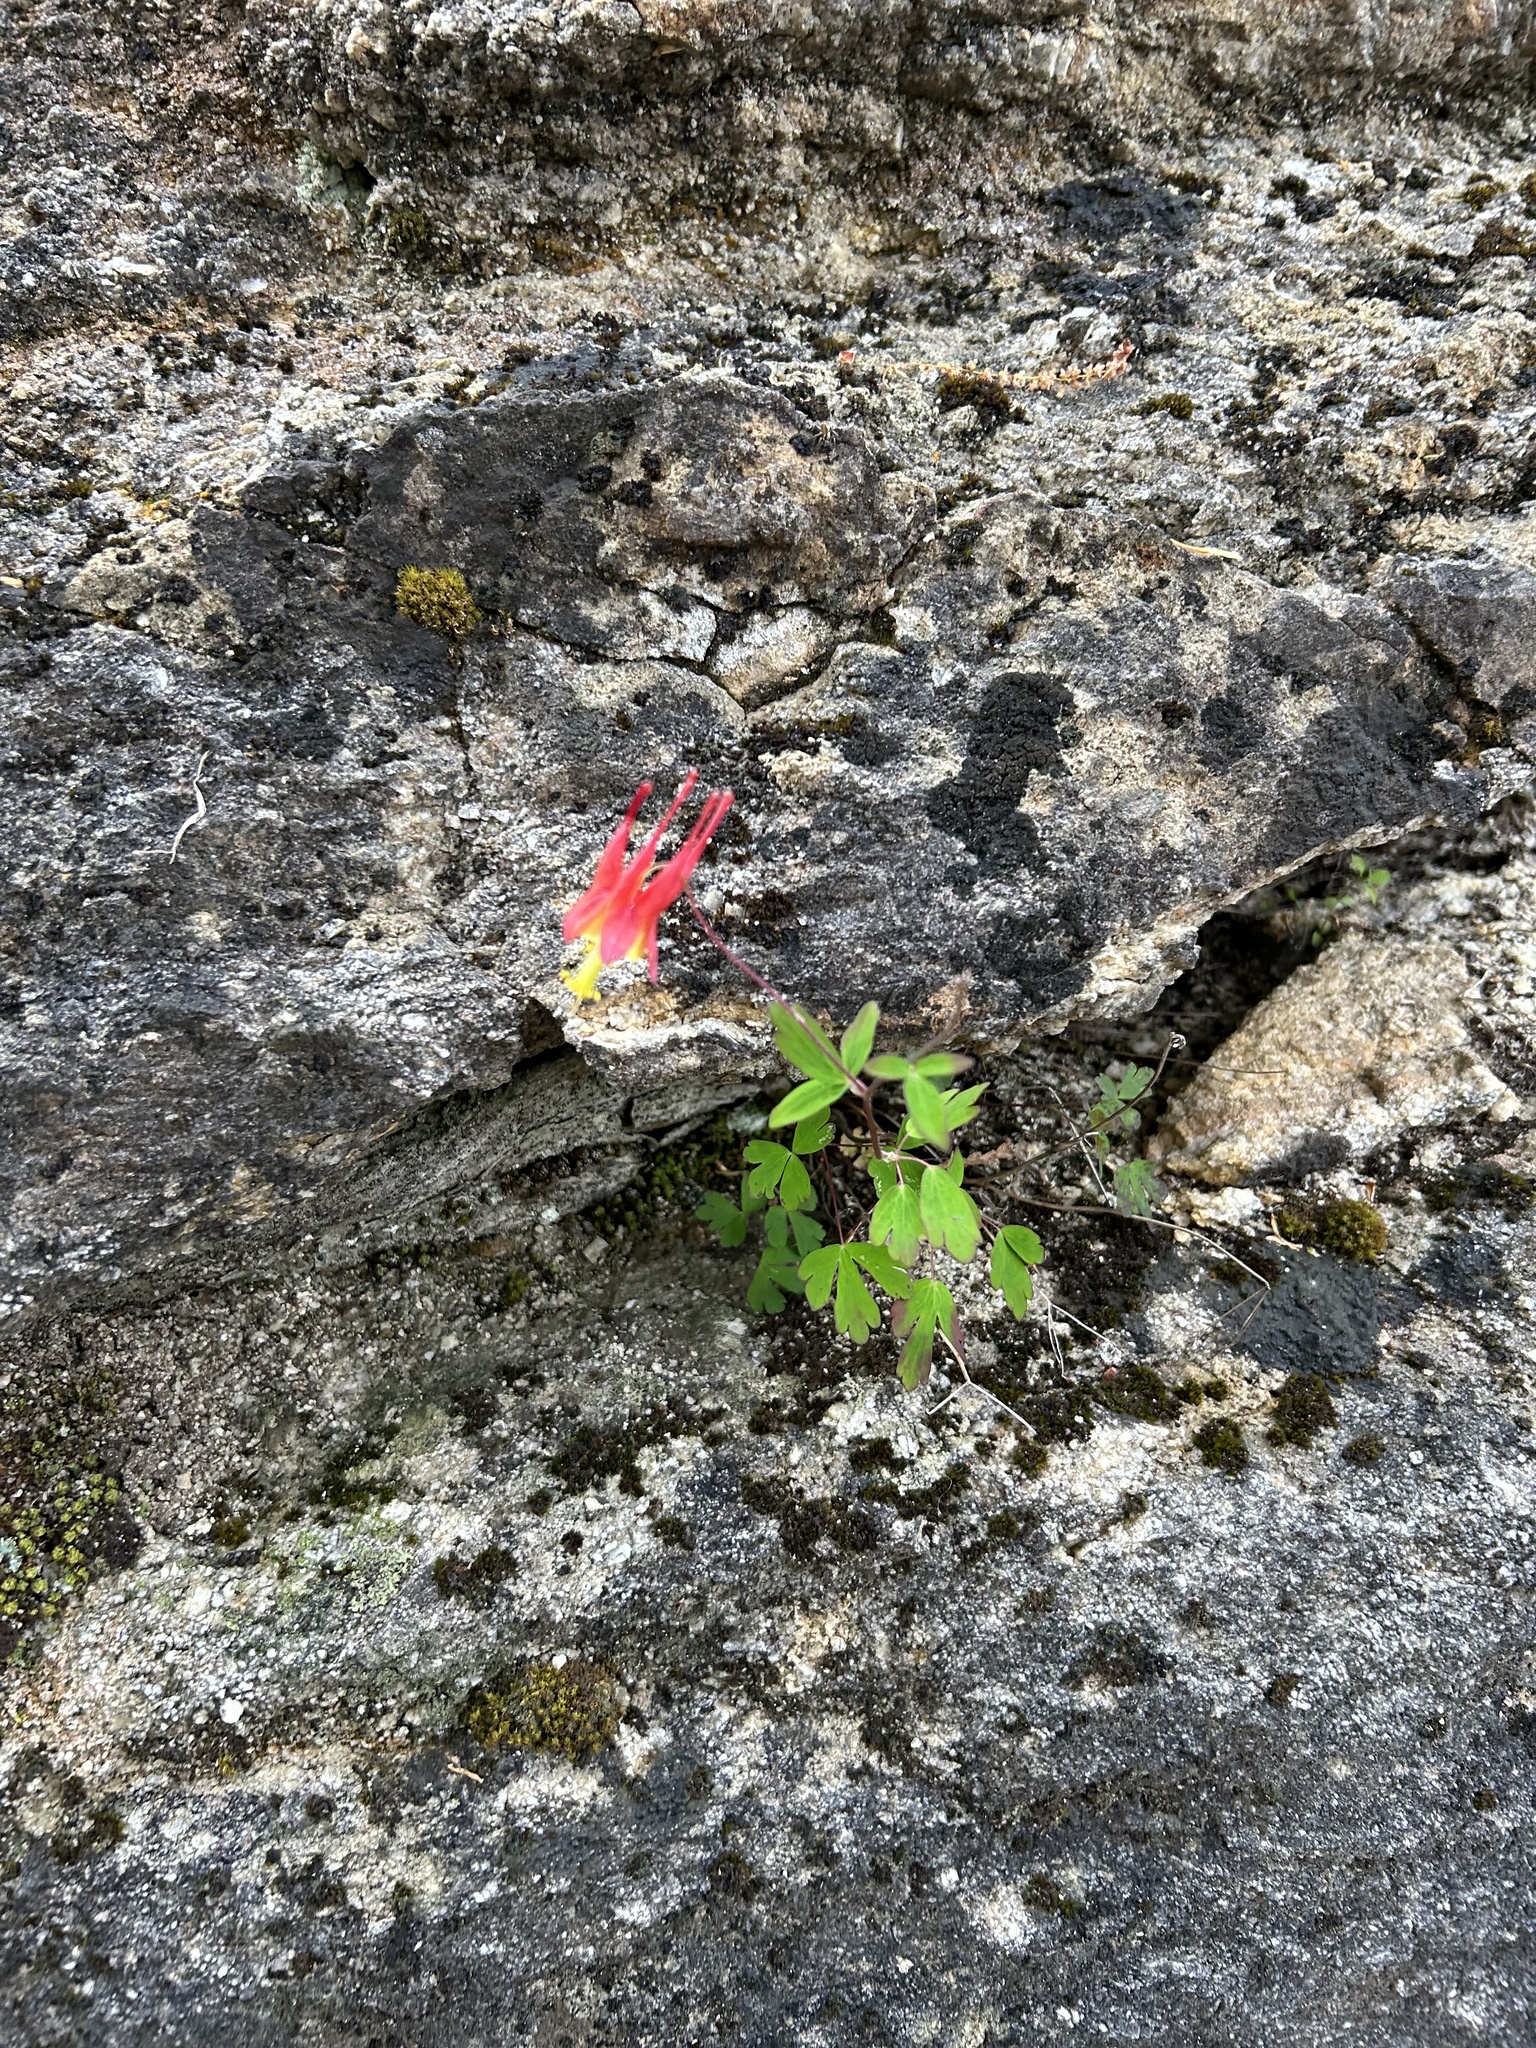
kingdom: Plantae
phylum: Tracheophyta
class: Magnoliopsida
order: Ranunculales
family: Ranunculaceae
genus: Aquilegia
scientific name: Aquilegia canadensis
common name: American columbine
